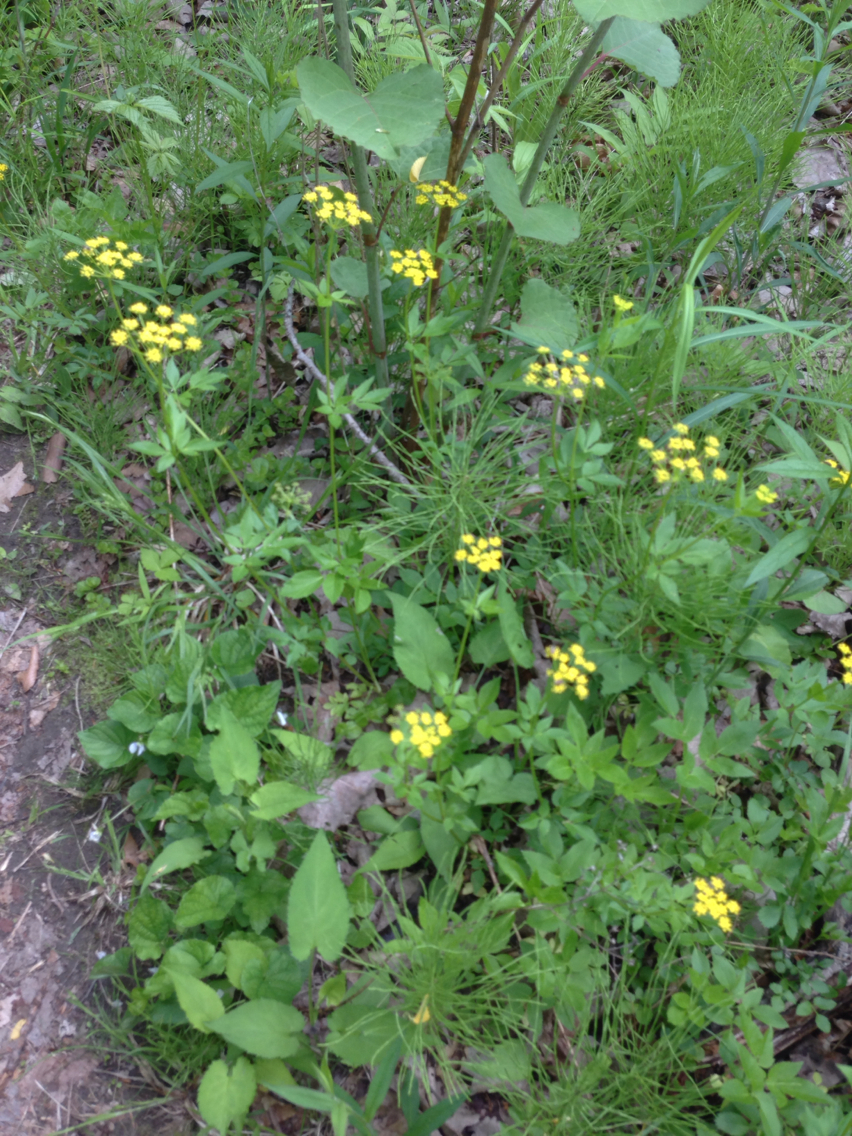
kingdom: Plantae
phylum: Tracheophyta
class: Magnoliopsida
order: Apiales
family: Apiaceae
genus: Zizia
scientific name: Zizia aurea
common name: Golden alexanders
